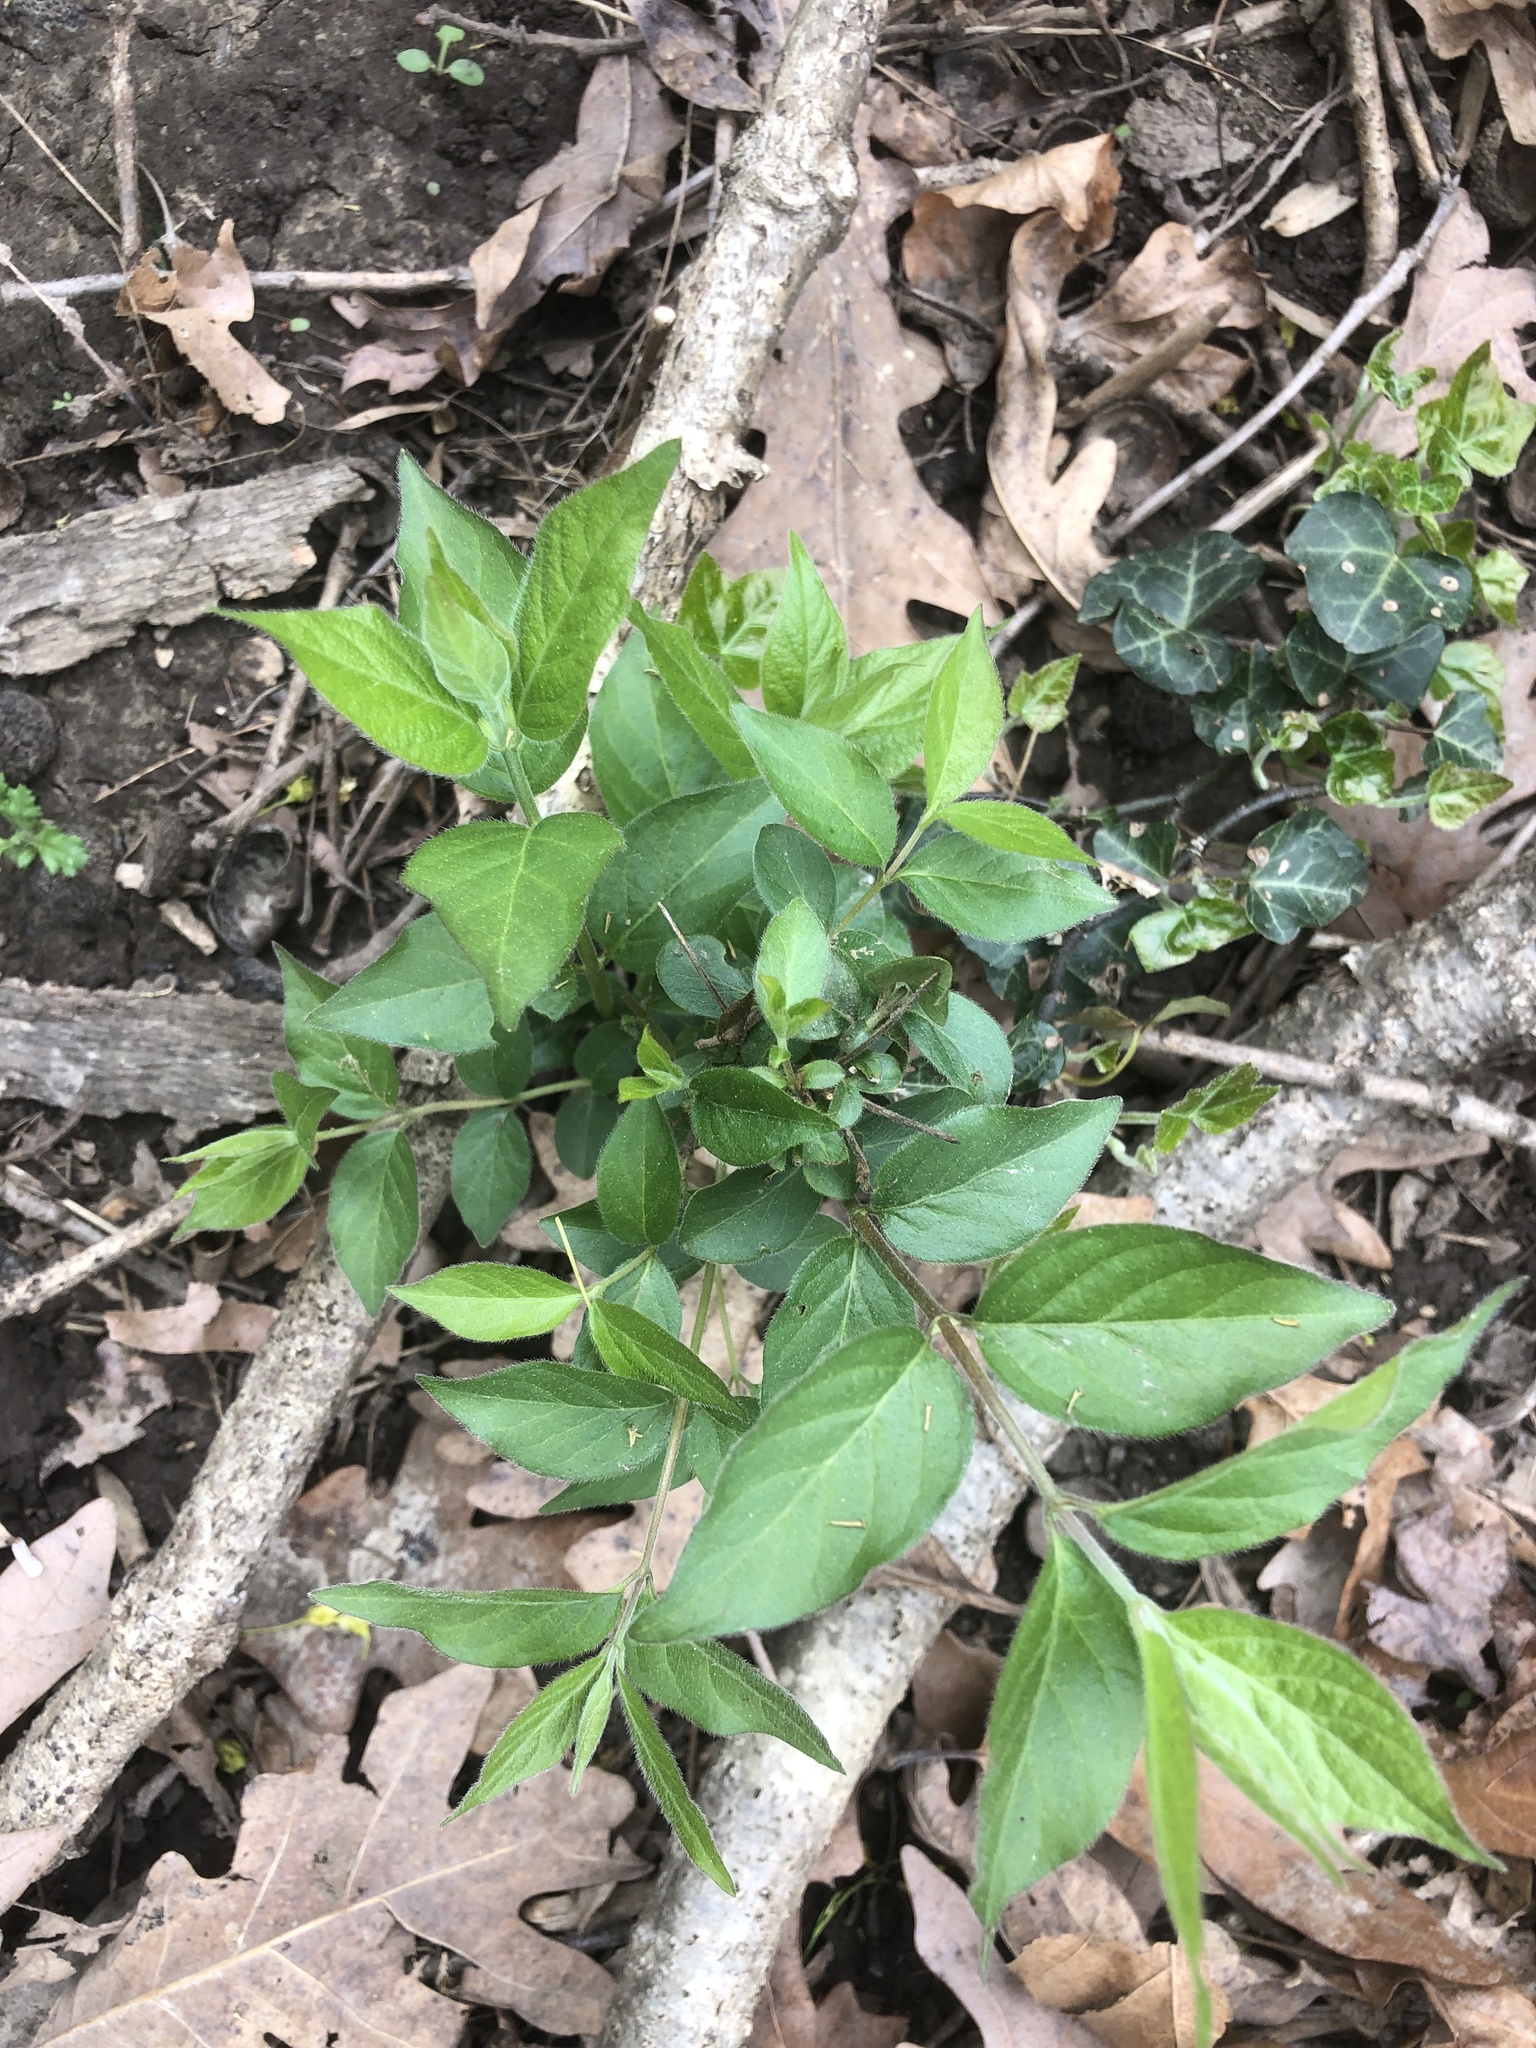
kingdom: Plantae
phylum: Tracheophyta
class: Magnoliopsida
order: Dipsacales
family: Caprifoliaceae
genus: Lonicera
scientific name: Lonicera maackii
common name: Amur honeysuckle
